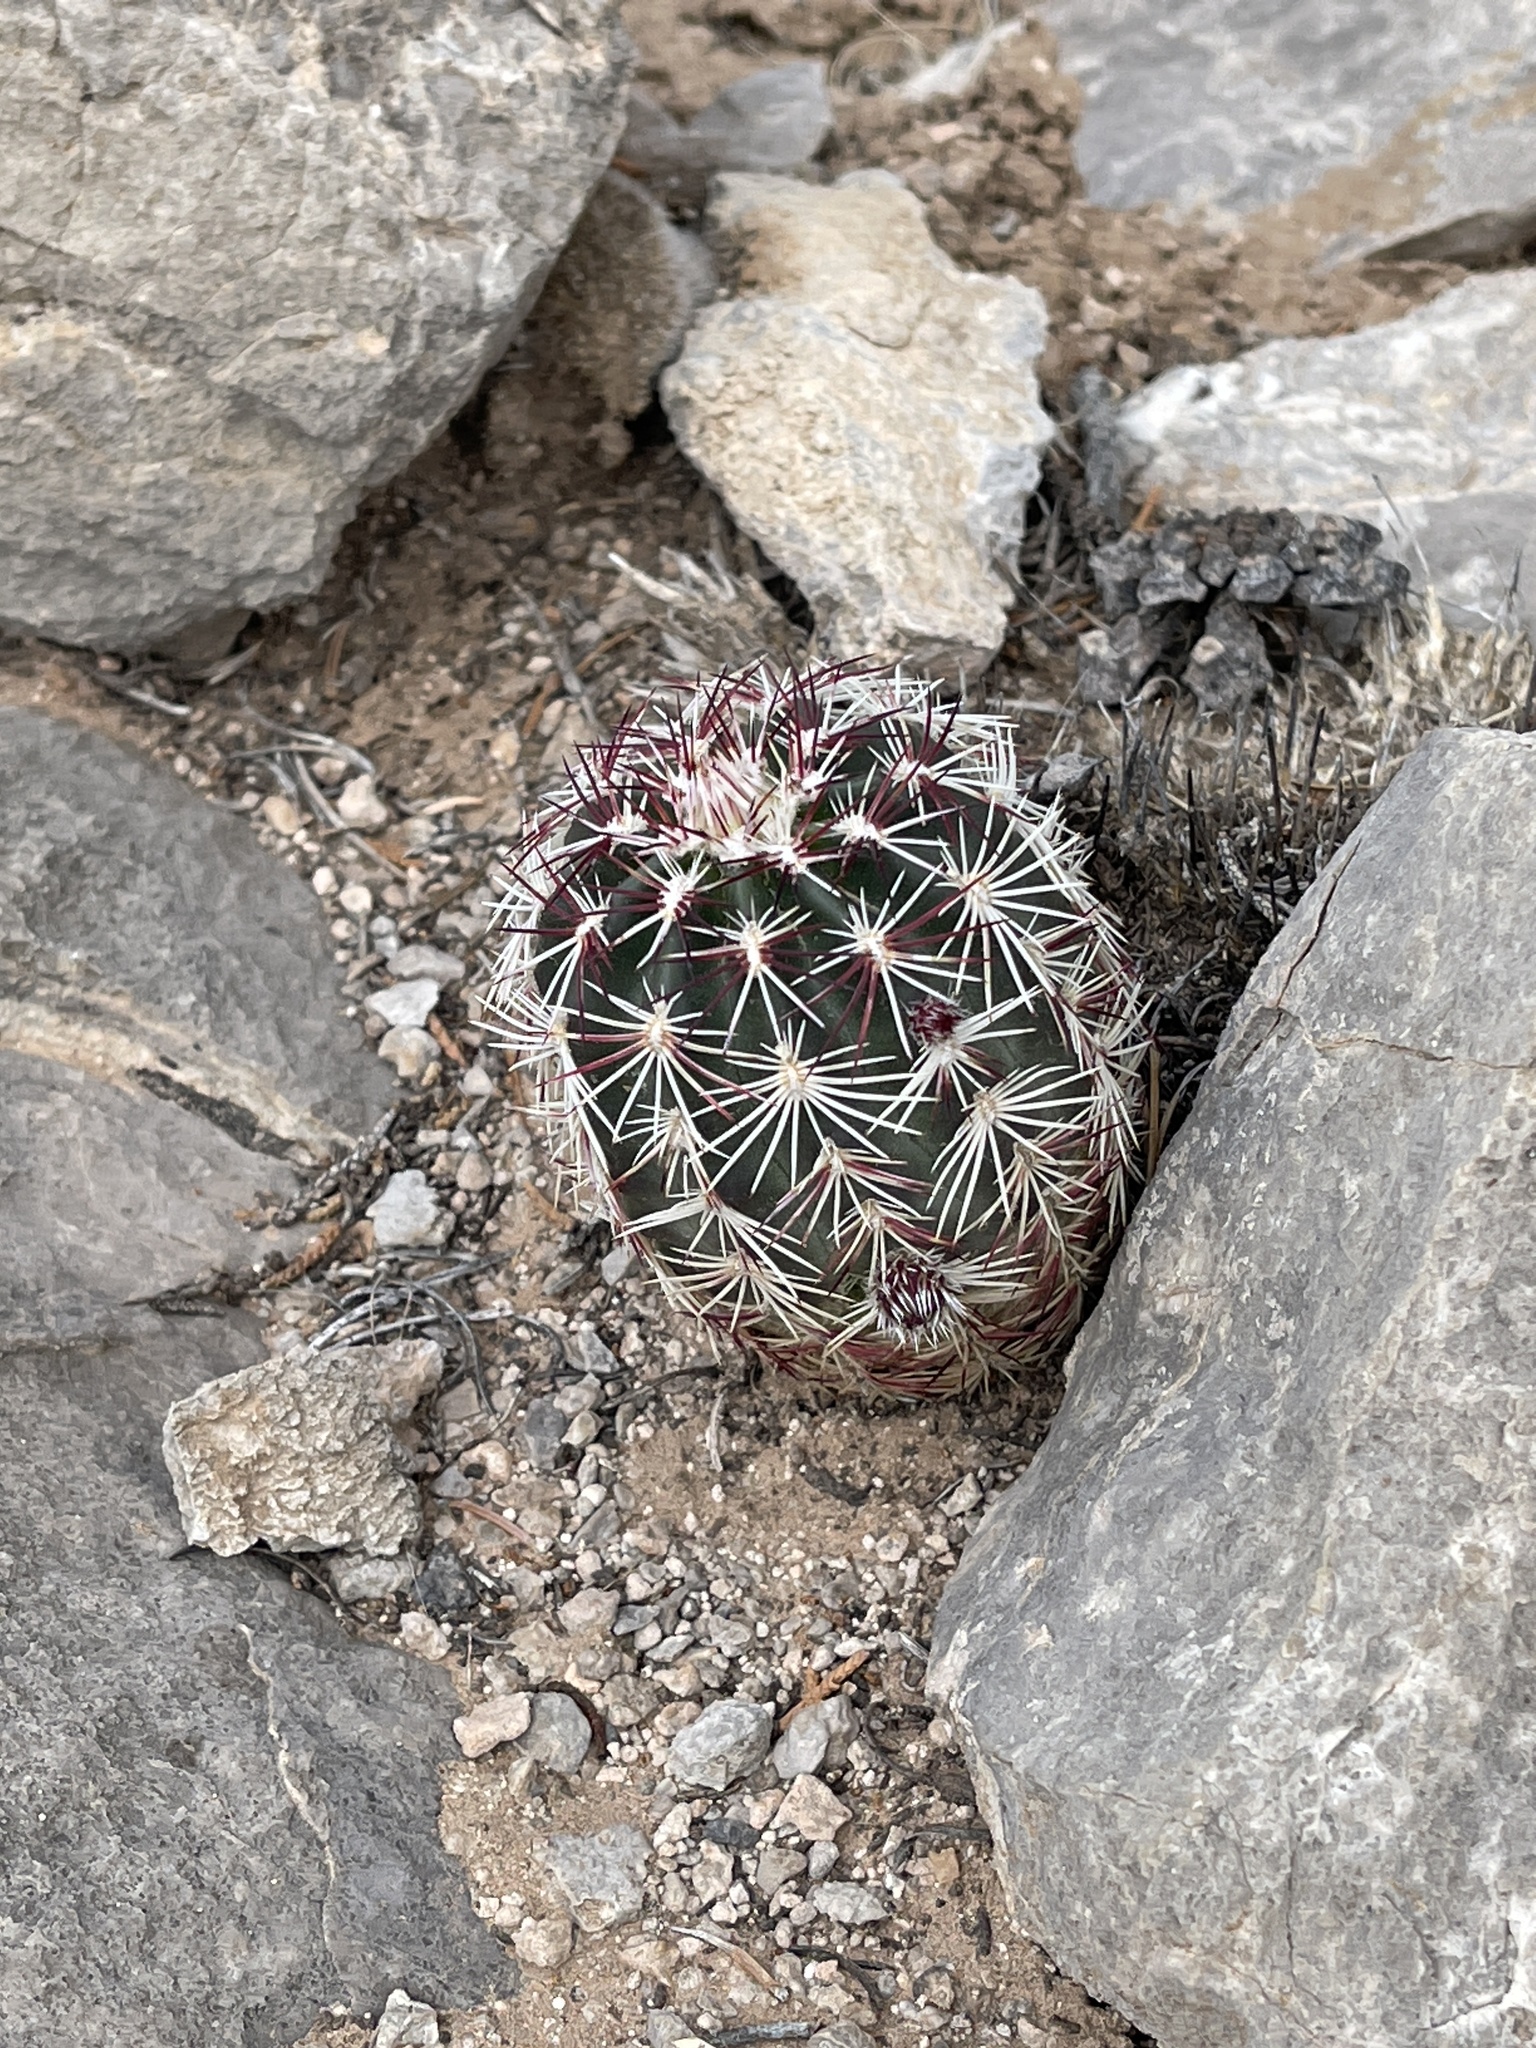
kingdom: Plantae
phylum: Tracheophyta
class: Magnoliopsida
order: Caryophyllales
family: Cactaceae
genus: Echinocereus
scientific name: Echinocereus viridiflorus
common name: Nylon hedgehog cactus
